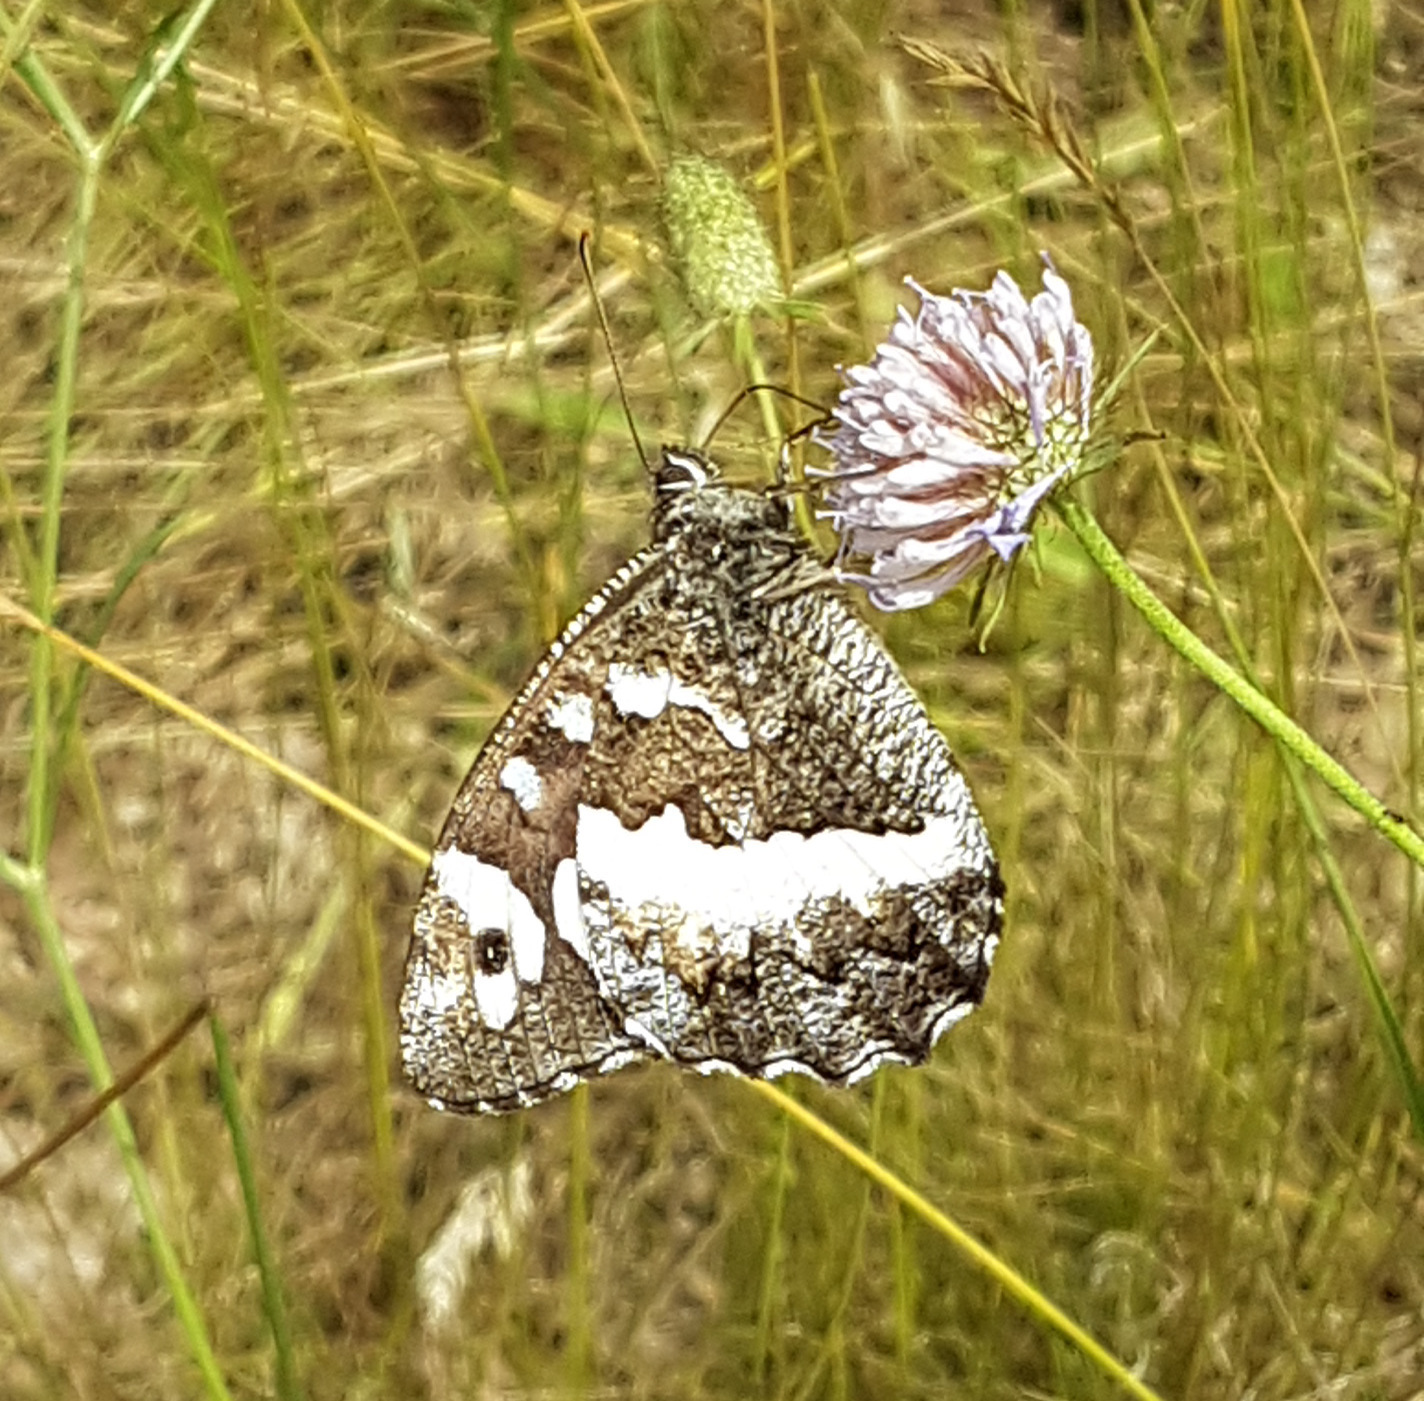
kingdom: Animalia
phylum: Arthropoda
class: Insecta
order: Lepidoptera
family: Lycaenidae
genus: Loweia
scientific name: Loweia tityrus
